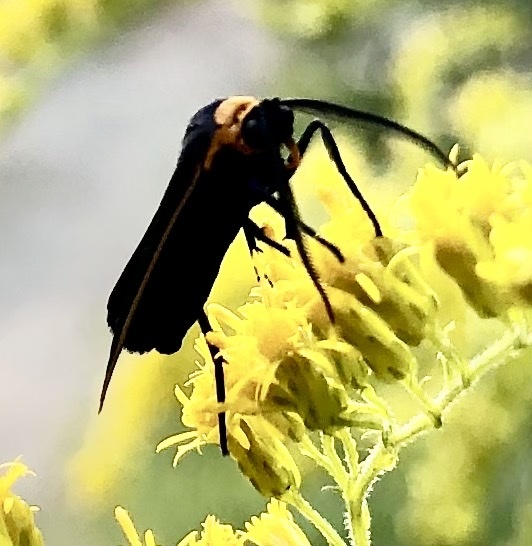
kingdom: Animalia
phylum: Arthropoda
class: Insecta
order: Lepidoptera
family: Erebidae
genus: Cisseps
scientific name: Cisseps fulvicollis
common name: Yellow-collared scape moth
